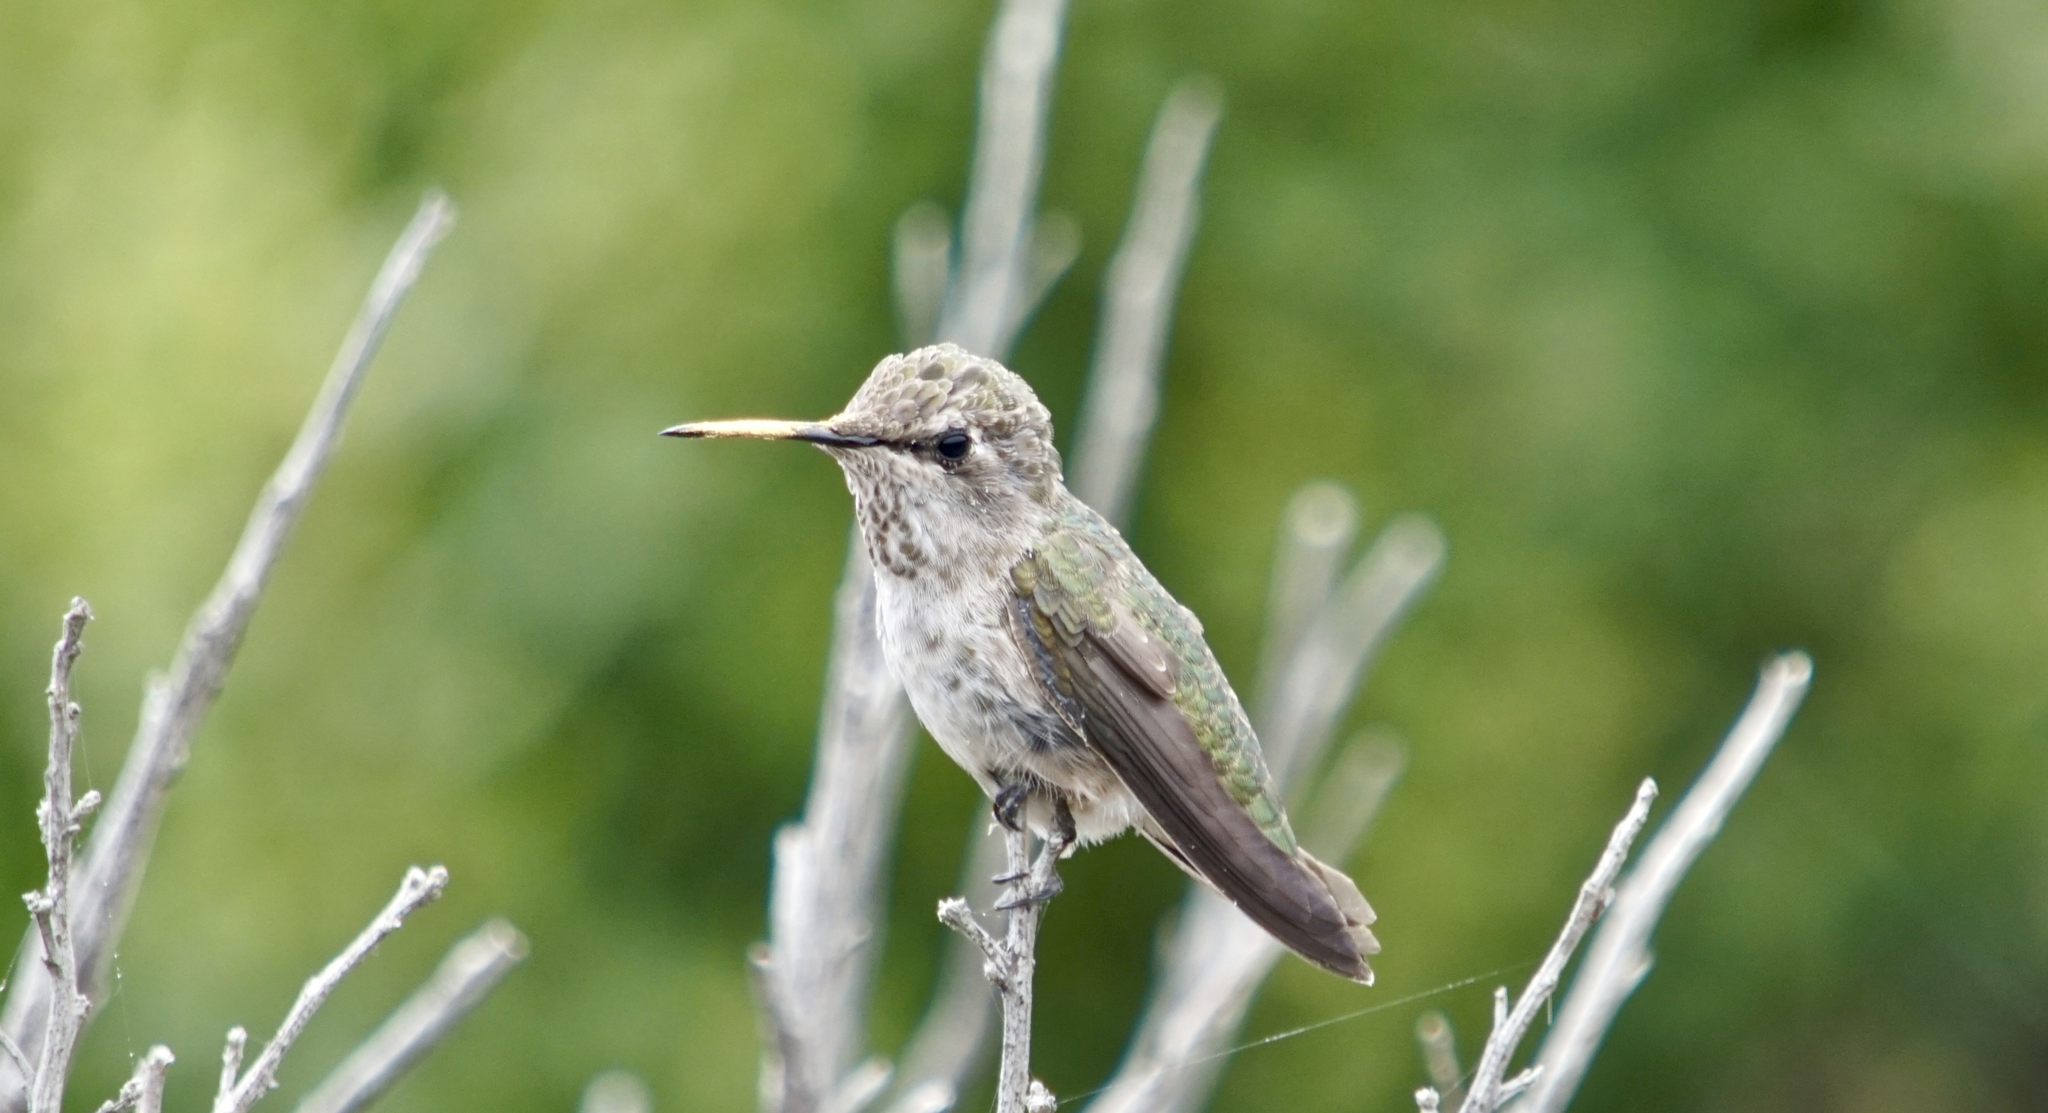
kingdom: Animalia
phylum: Chordata
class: Aves
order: Apodiformes
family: Trochilidae
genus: Calypte
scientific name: Calypte anna
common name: Anna's hummingbird
